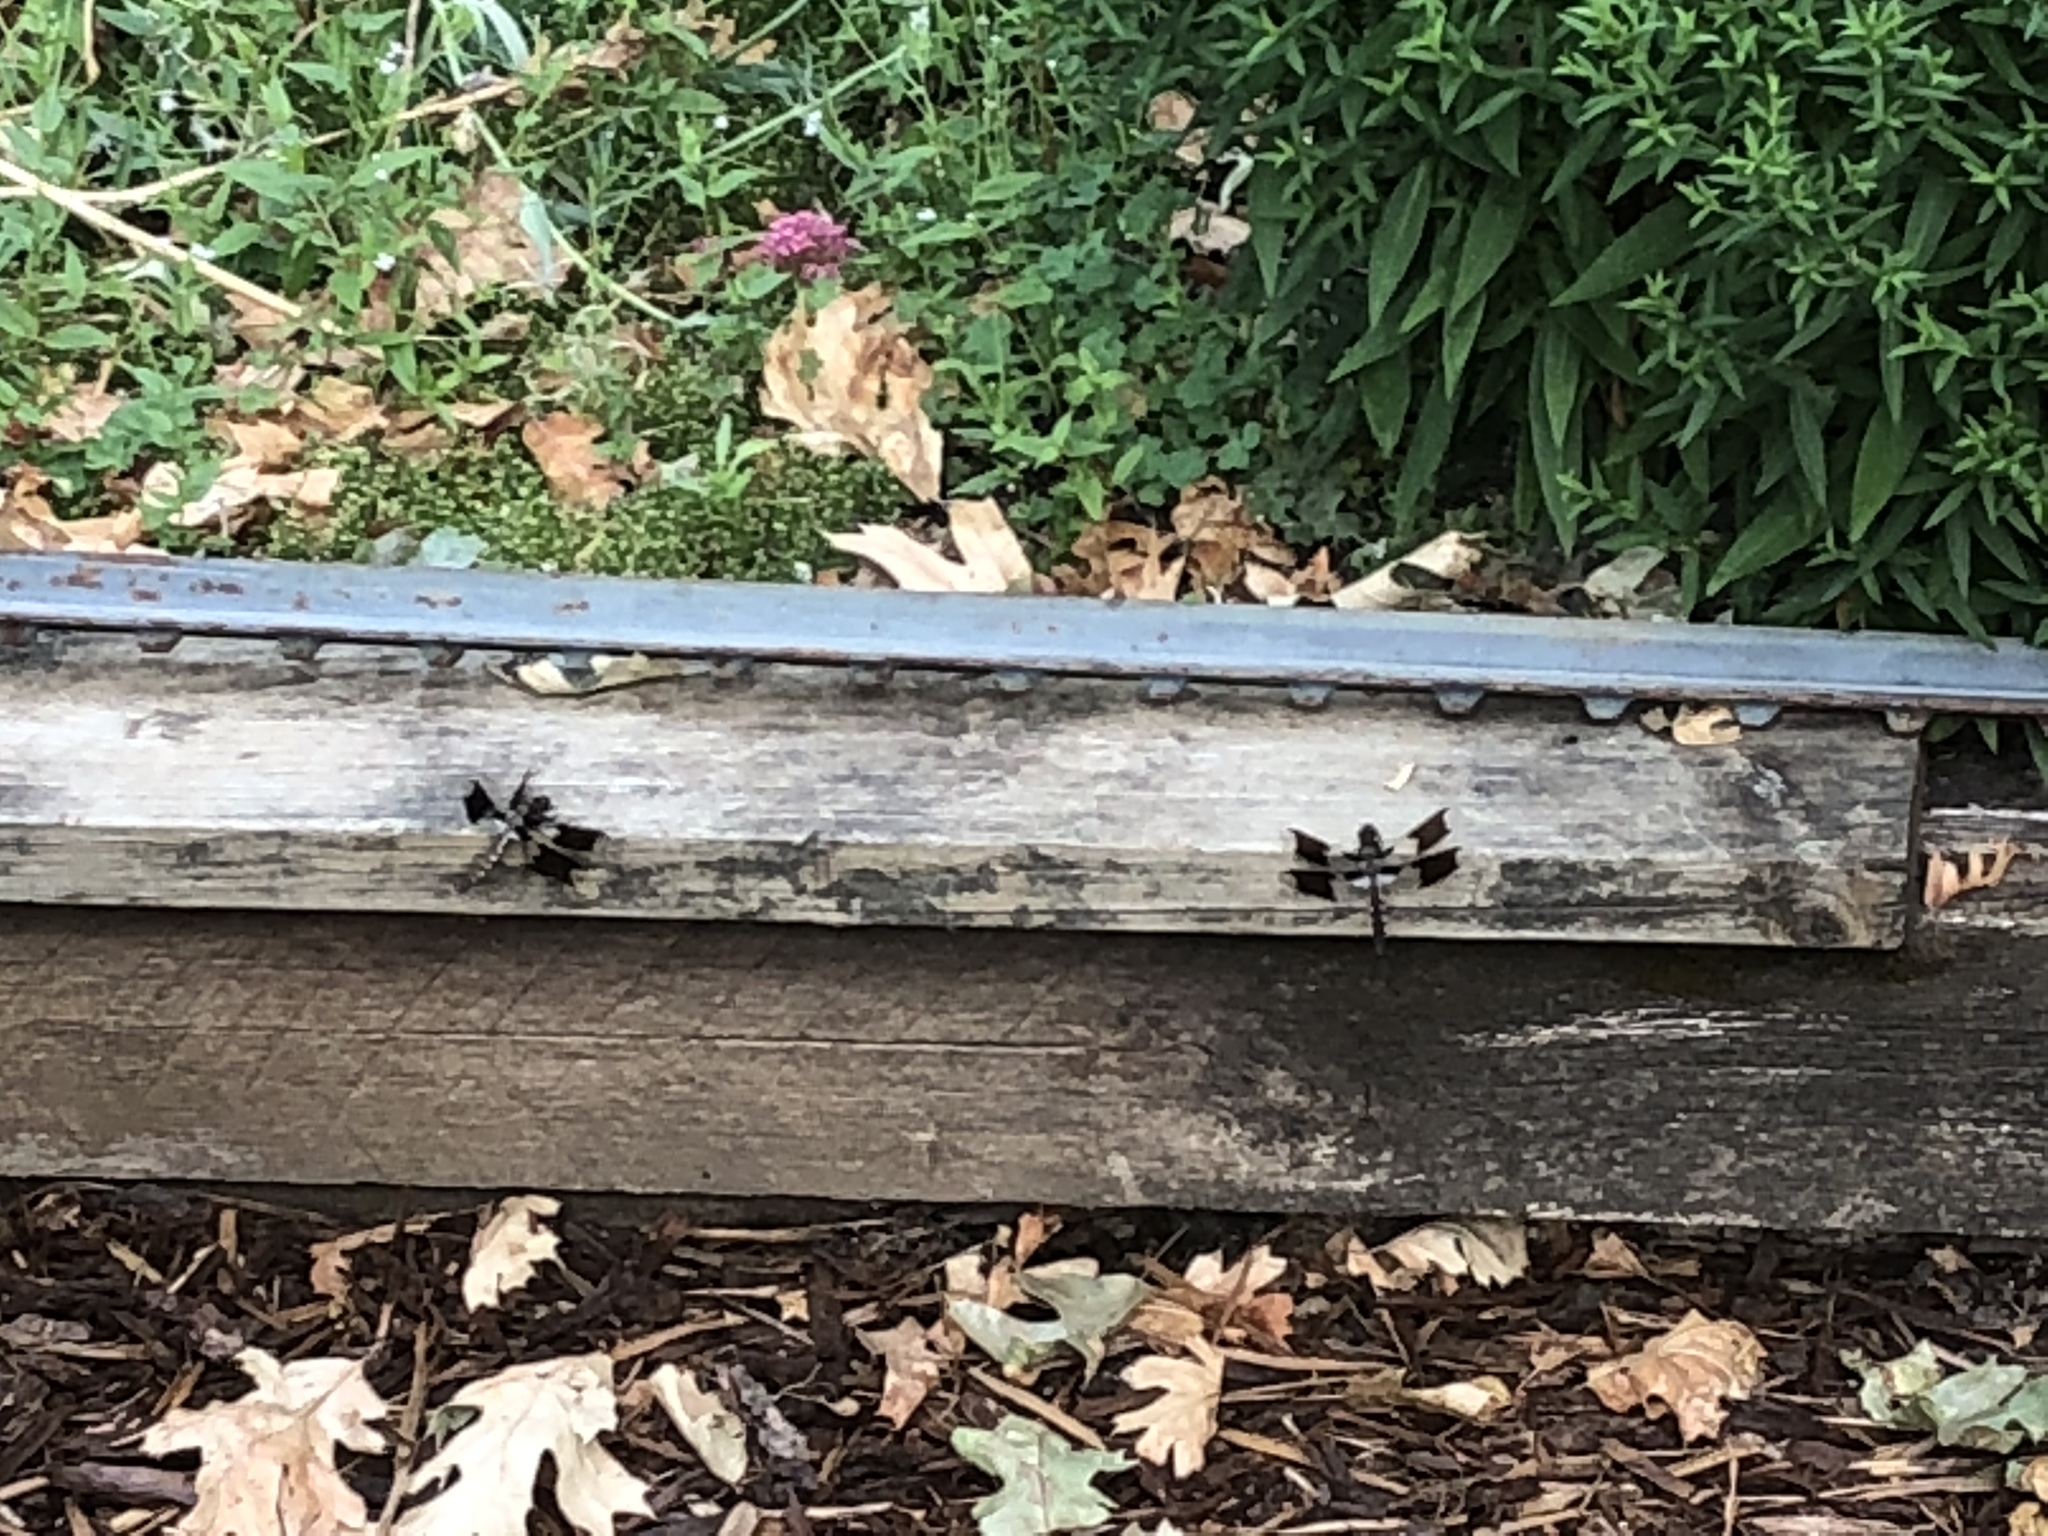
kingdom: Animalia
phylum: Arthropoda
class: Insecta
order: Odonata
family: Libellulidae
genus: Plathemis
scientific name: Plathemis lydia
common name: Common whitetail
